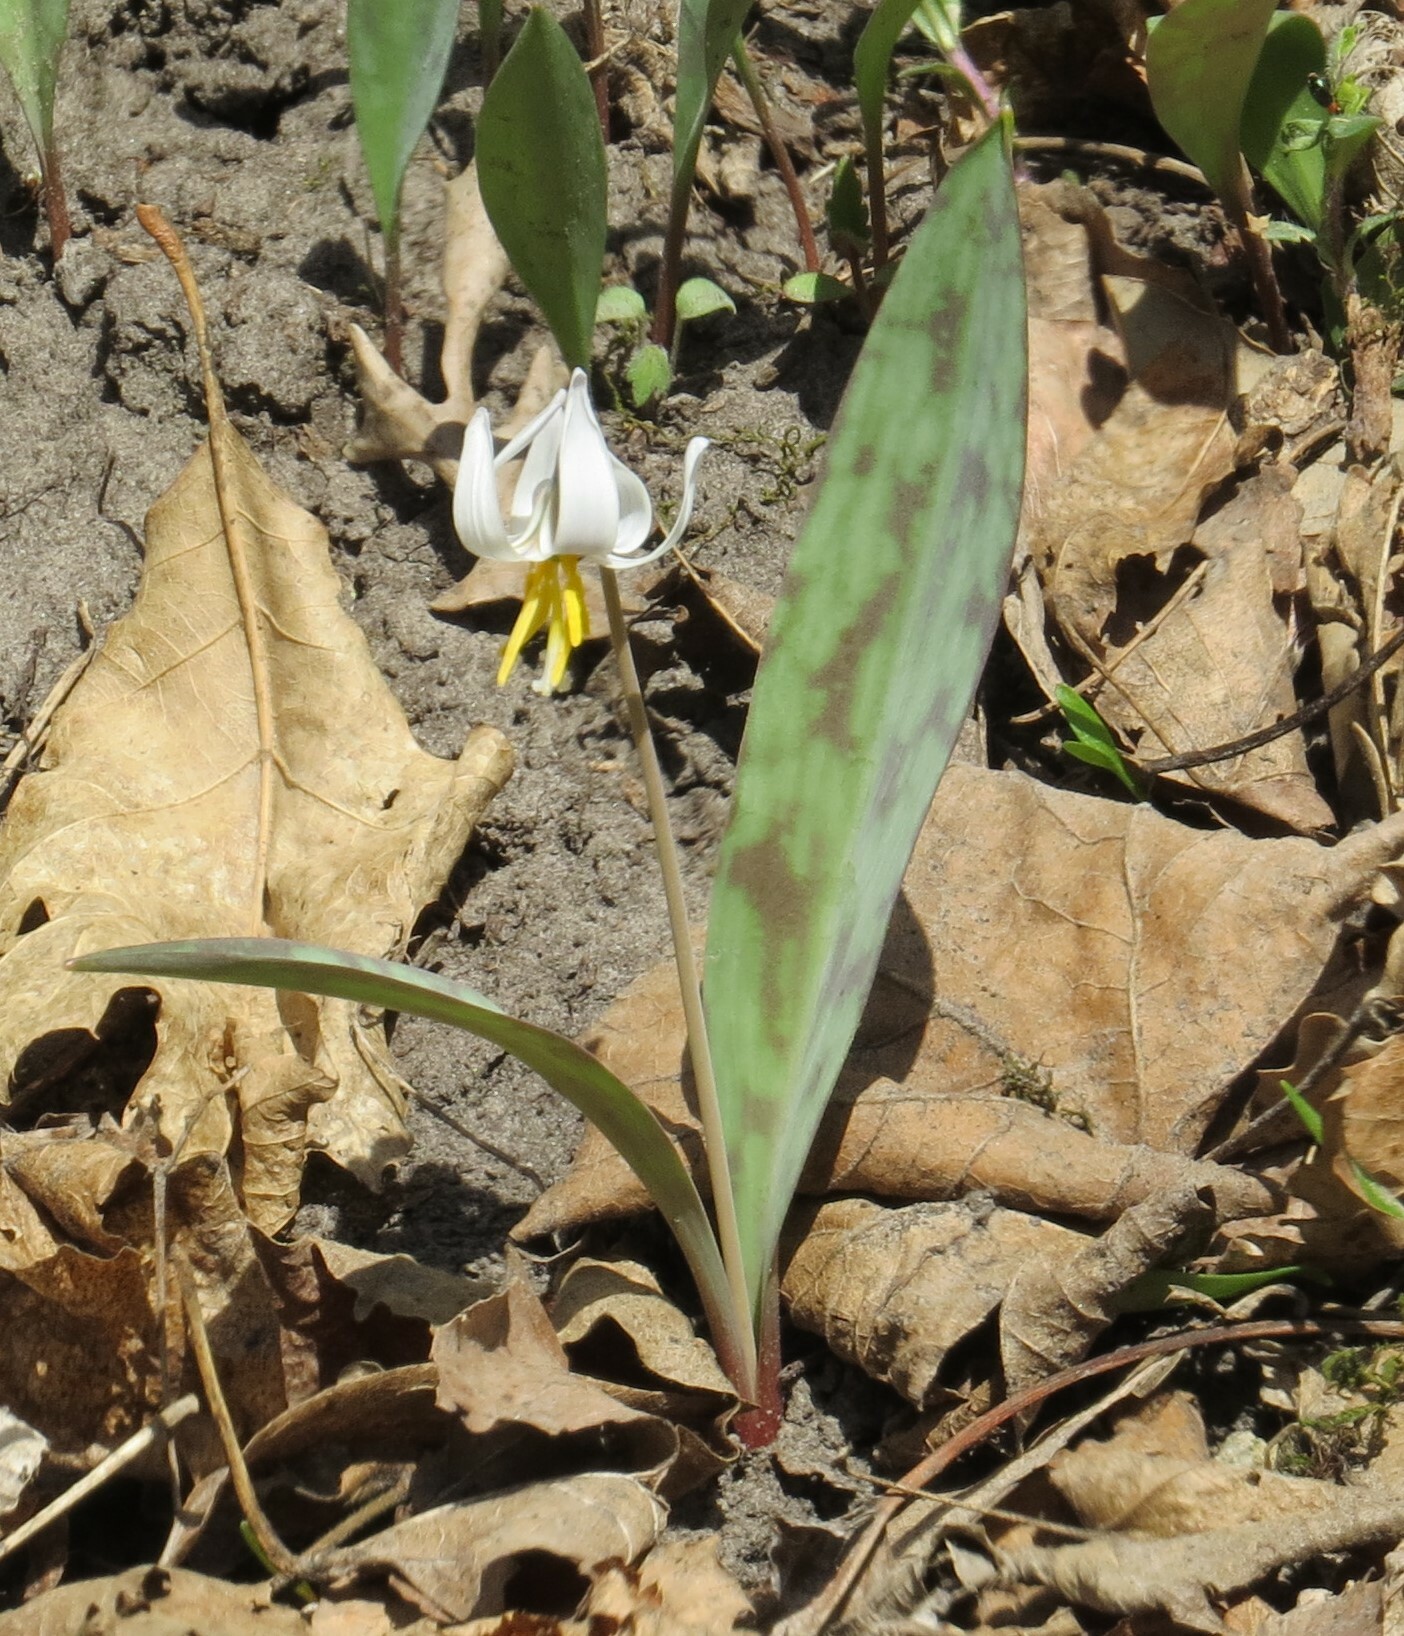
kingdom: Plantae
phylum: Tracheophyta
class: Liliopsida
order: Liliales
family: Liliaceae
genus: Erythronium
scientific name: Erythronium albidum
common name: White trout-lily
